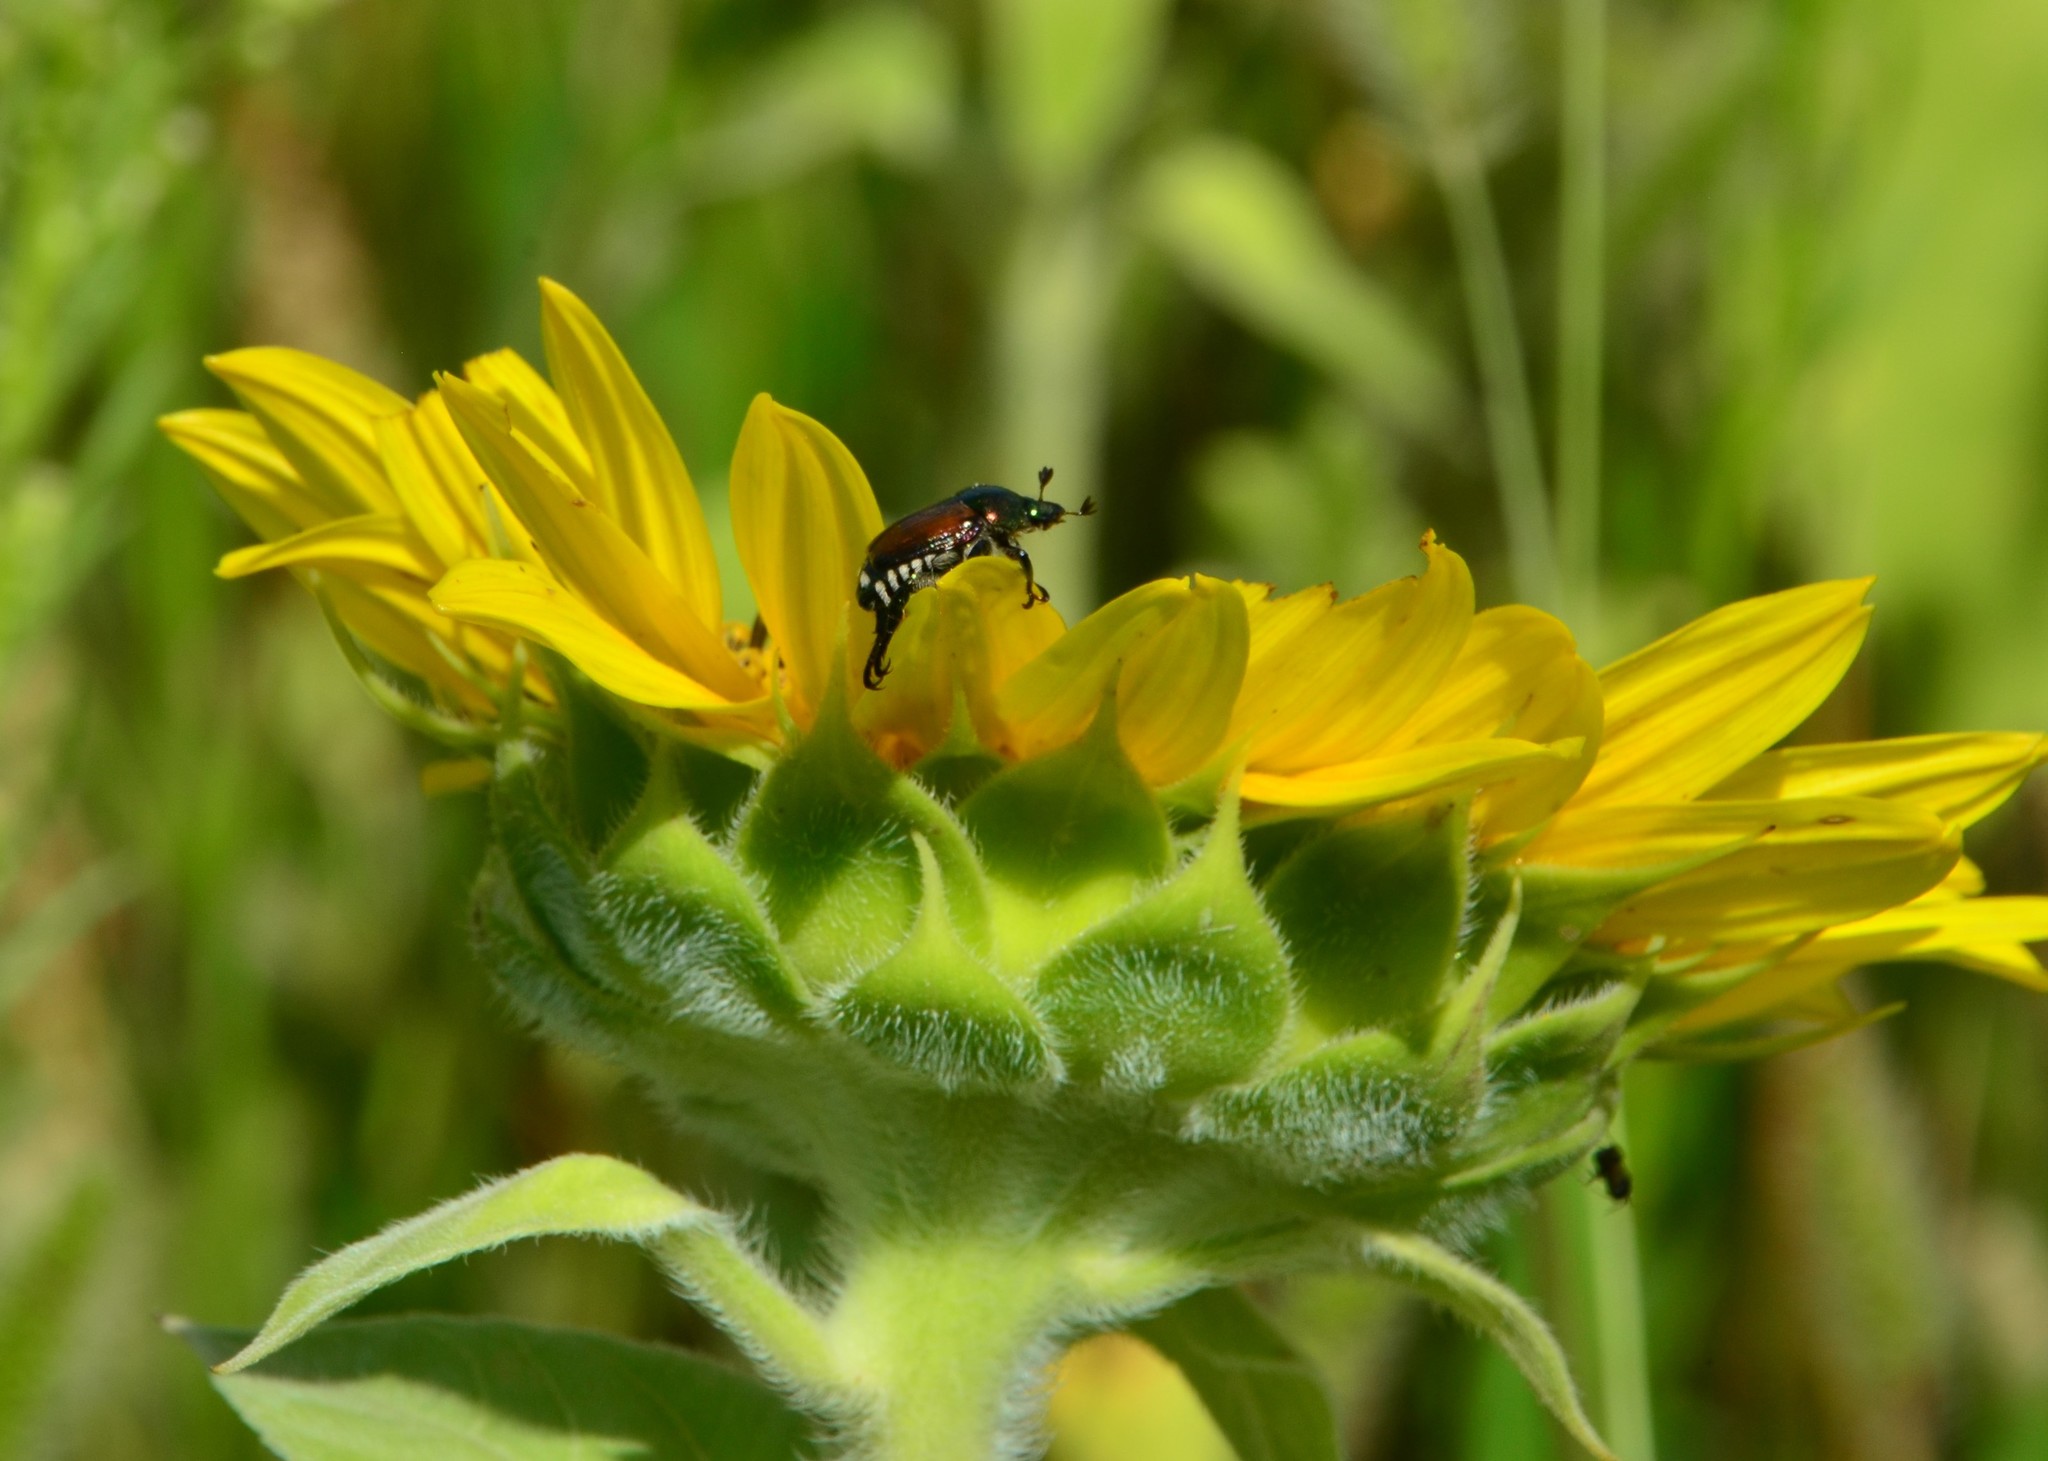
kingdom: Animalia
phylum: Arthropoda
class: Insecta
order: Coleoptera
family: Scarabaeidae
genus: Popillia
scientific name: Popillia japonica
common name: Japanese beetle
